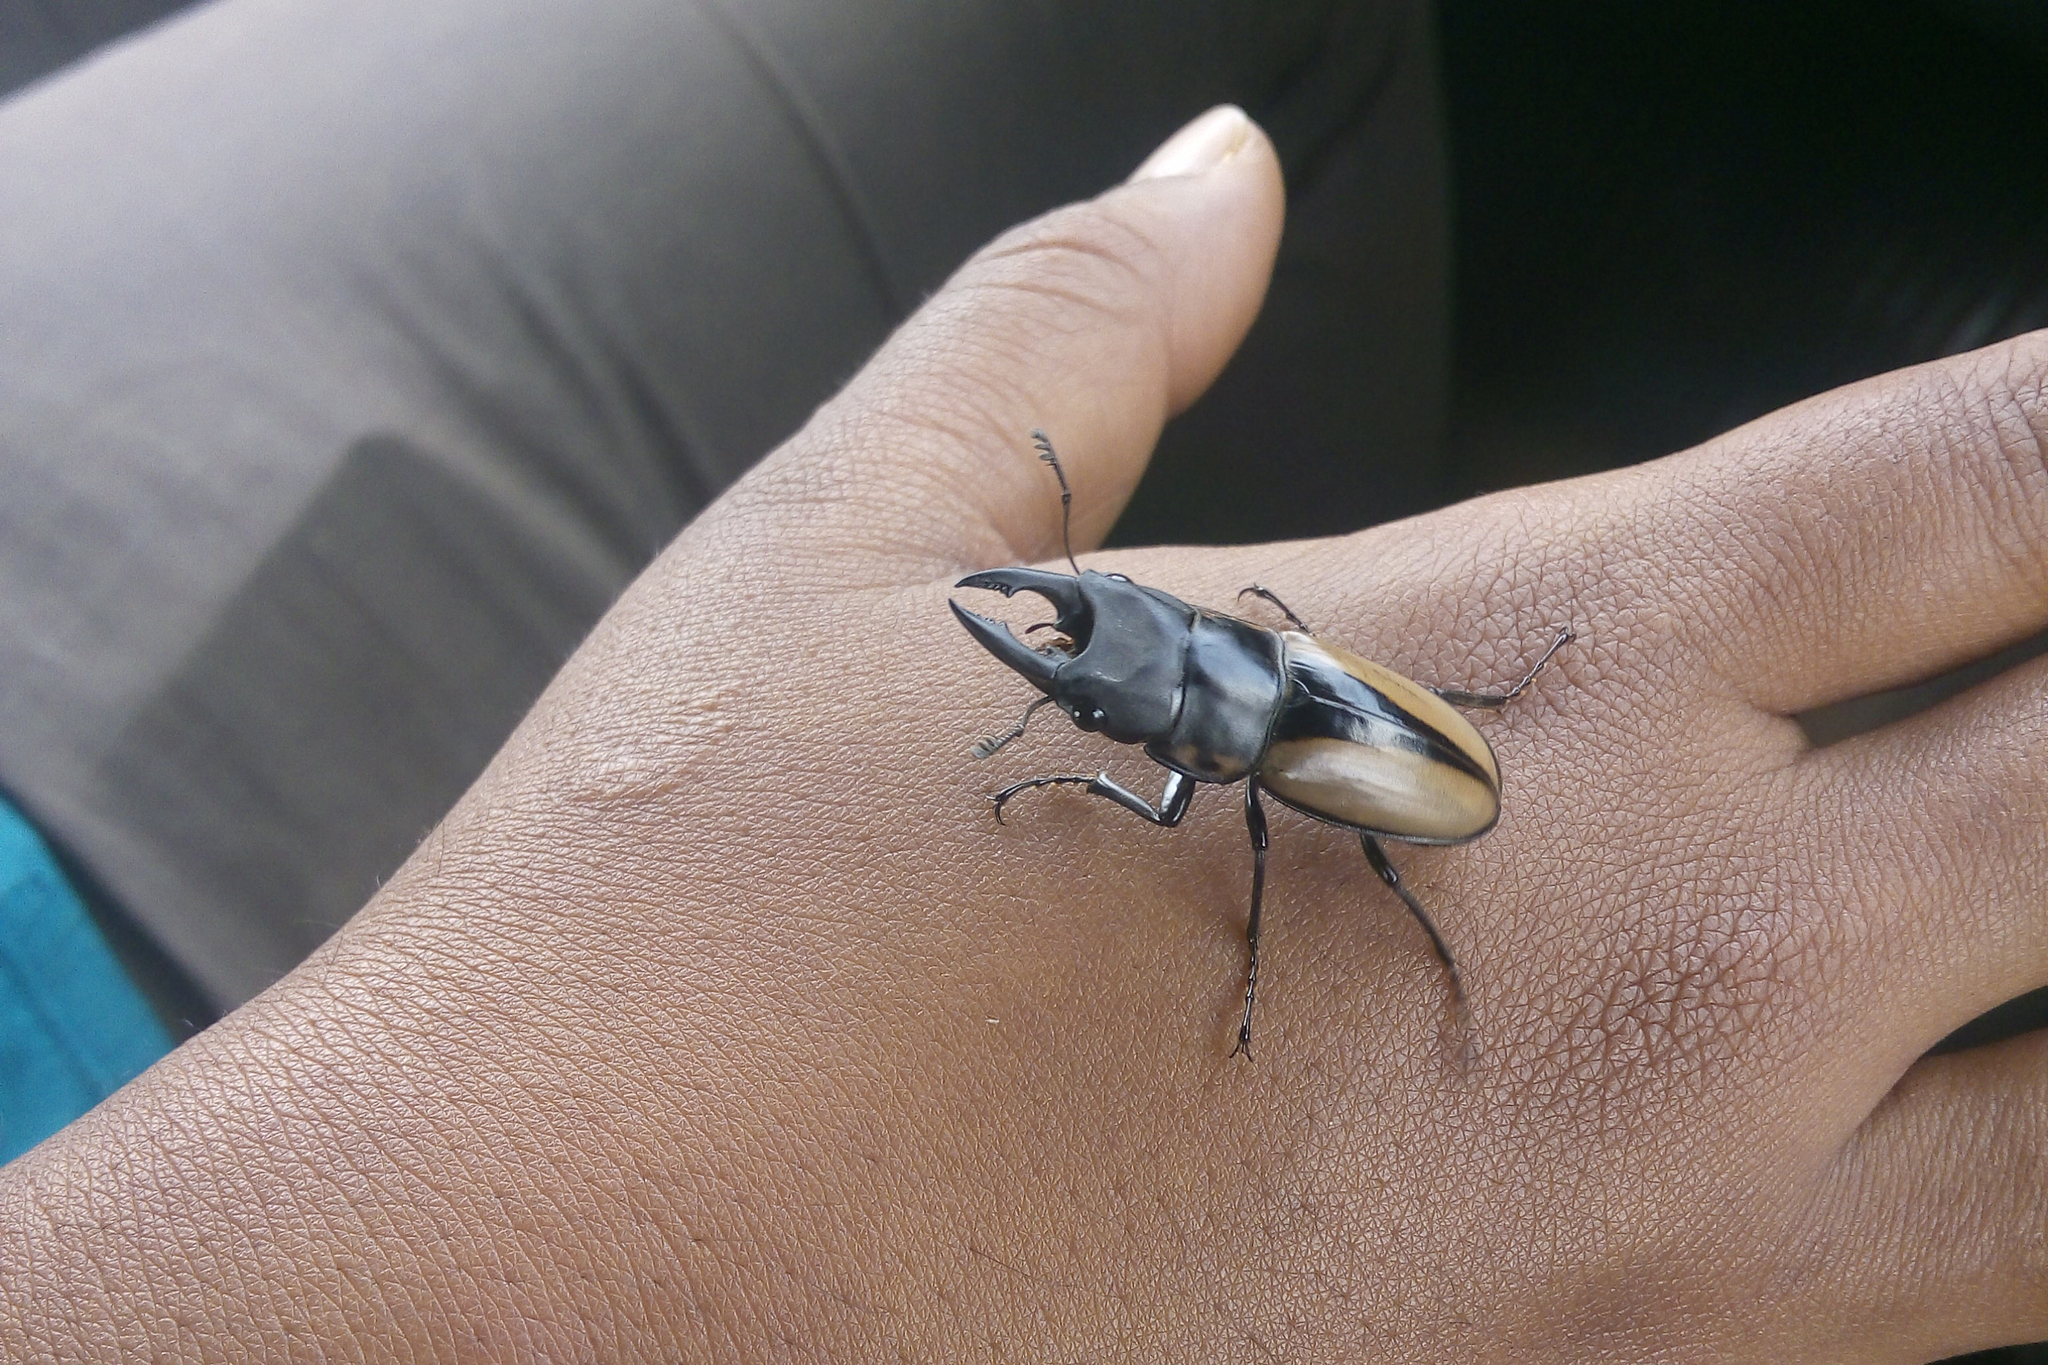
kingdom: Animalia
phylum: Arthropoda
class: Insecta
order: Coleoptera
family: Lucanidae
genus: Prosopocoilus
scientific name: Prosopocoilus speciosus
